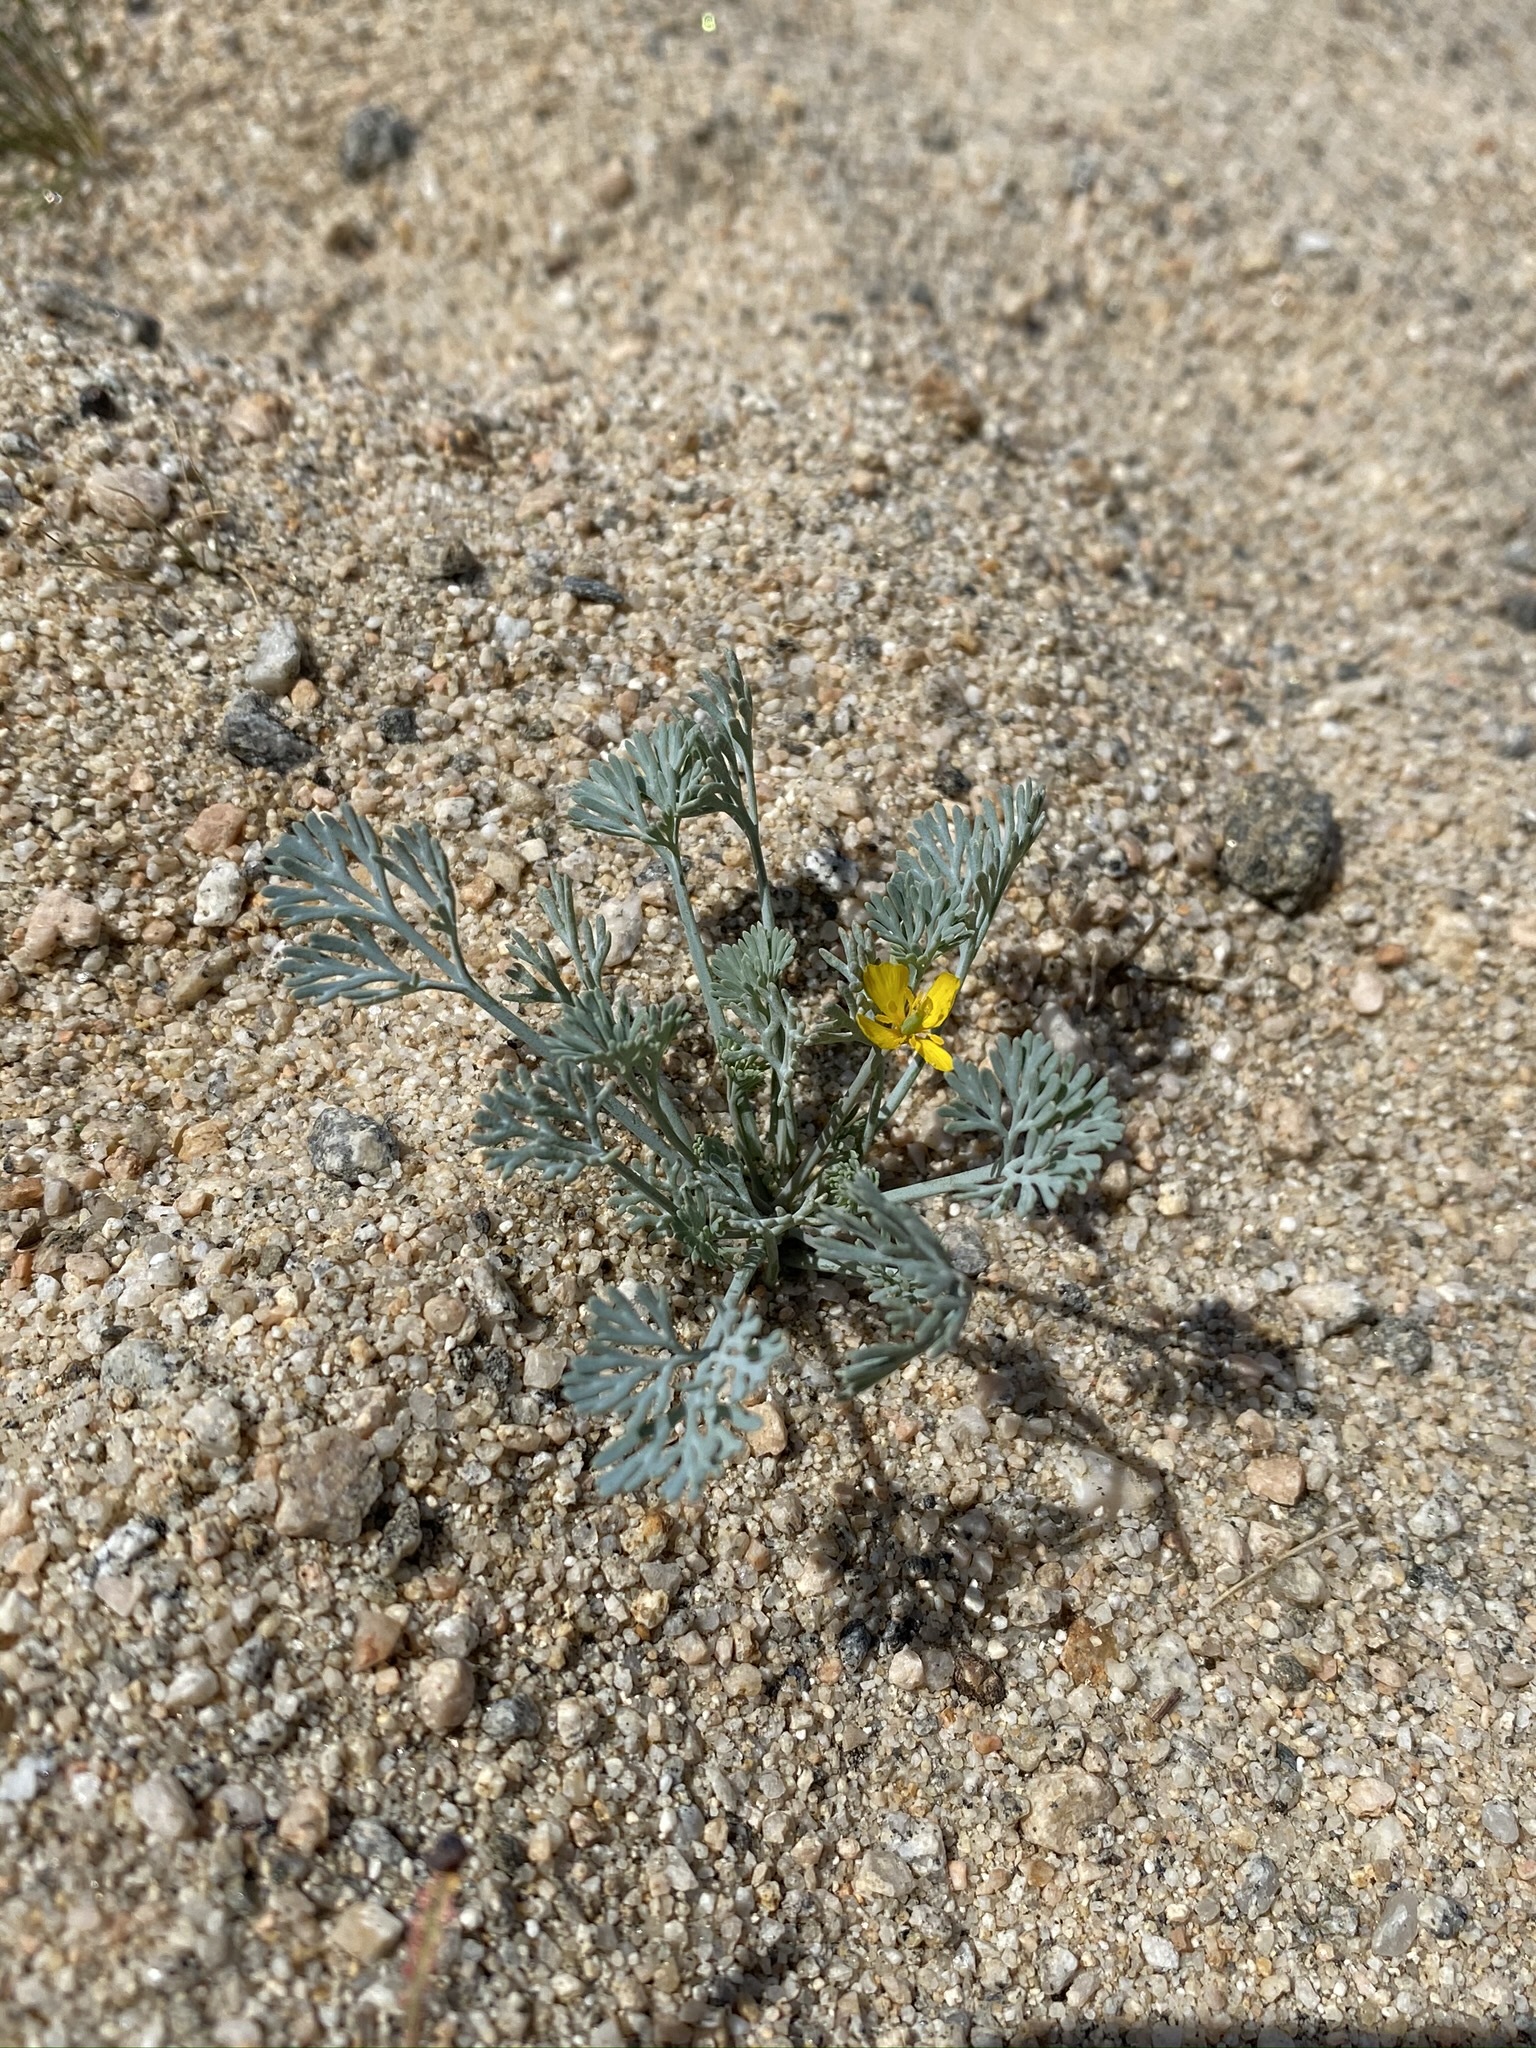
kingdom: Plantae
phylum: Tracheophyta
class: Magnoliopsida
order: Ranunculales
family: Papaveraceae
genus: Eschscholzia
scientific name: Eschscholzia minutiflora
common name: Small-flower california-poppy
